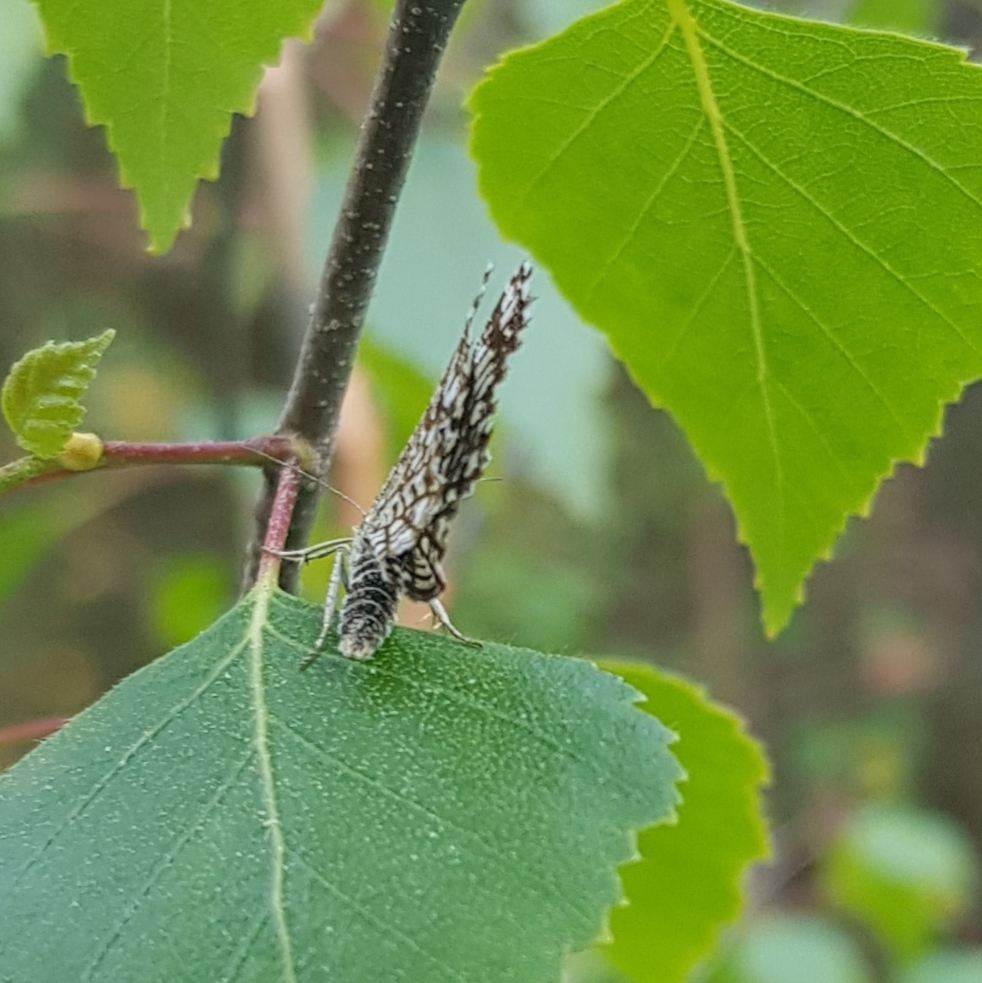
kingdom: Animalia
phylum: Arthropoda
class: Insecta
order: Lepidoptera
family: Geometridae
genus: Chiasmia
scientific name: Chiasmia clathrata
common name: Latticed heath
